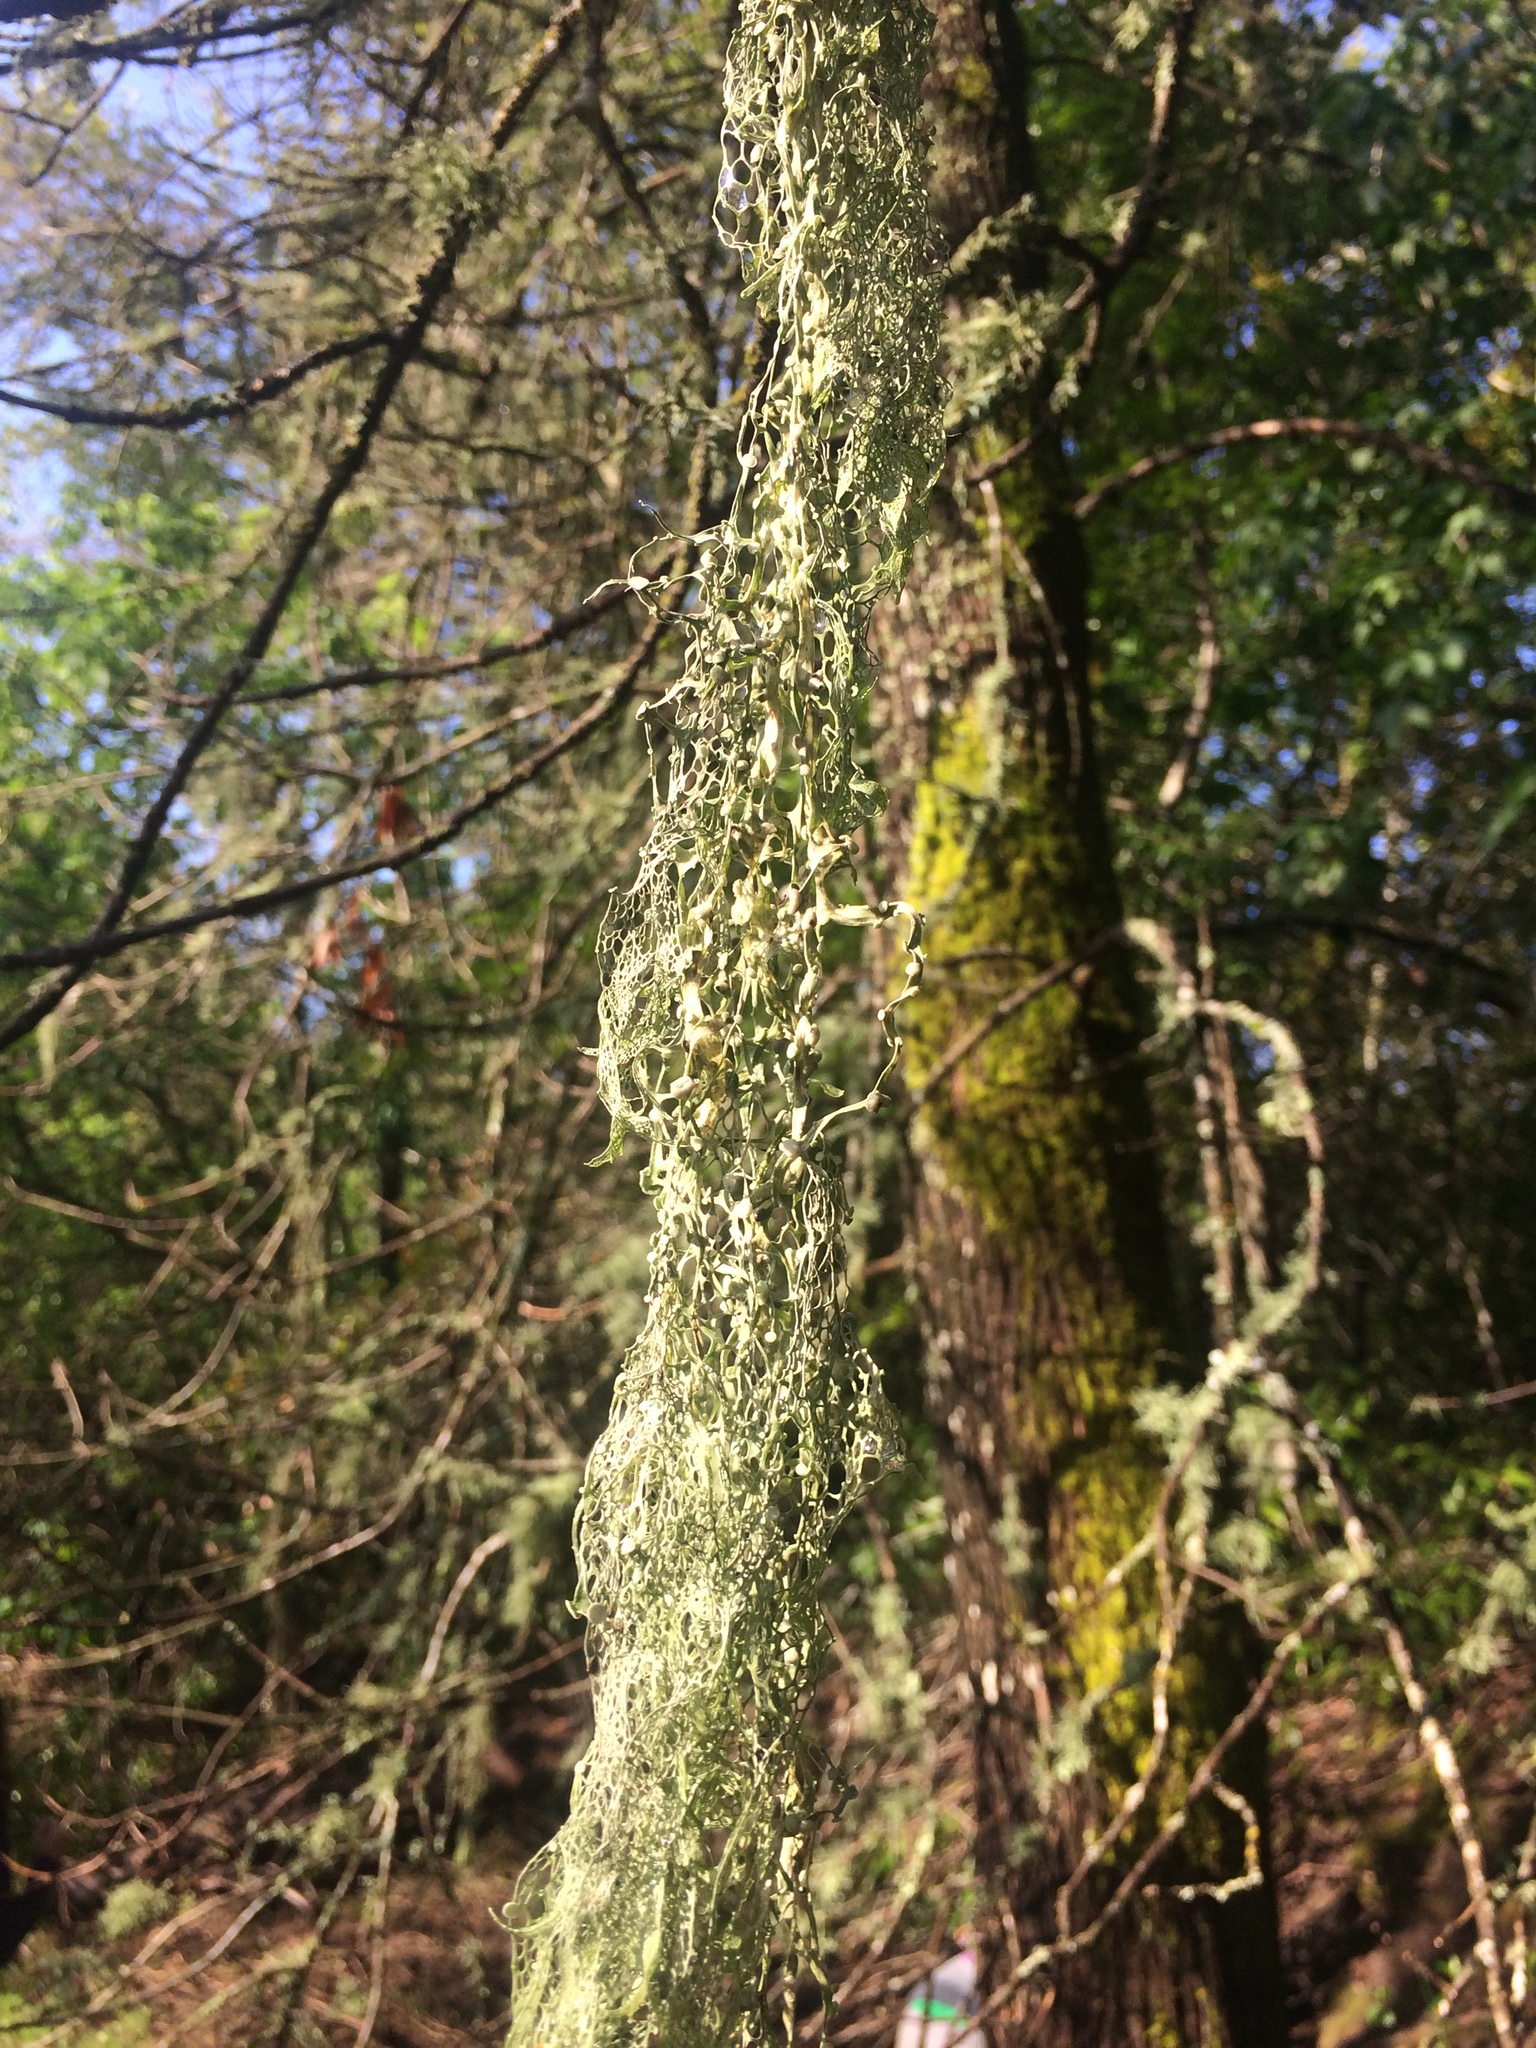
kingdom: Fungi
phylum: Ascomycota
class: Lecanoromycetes
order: Lecanorales
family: Ramalinaceae
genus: Ramalina
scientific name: Ramalina menziesii
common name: Lace lichen
